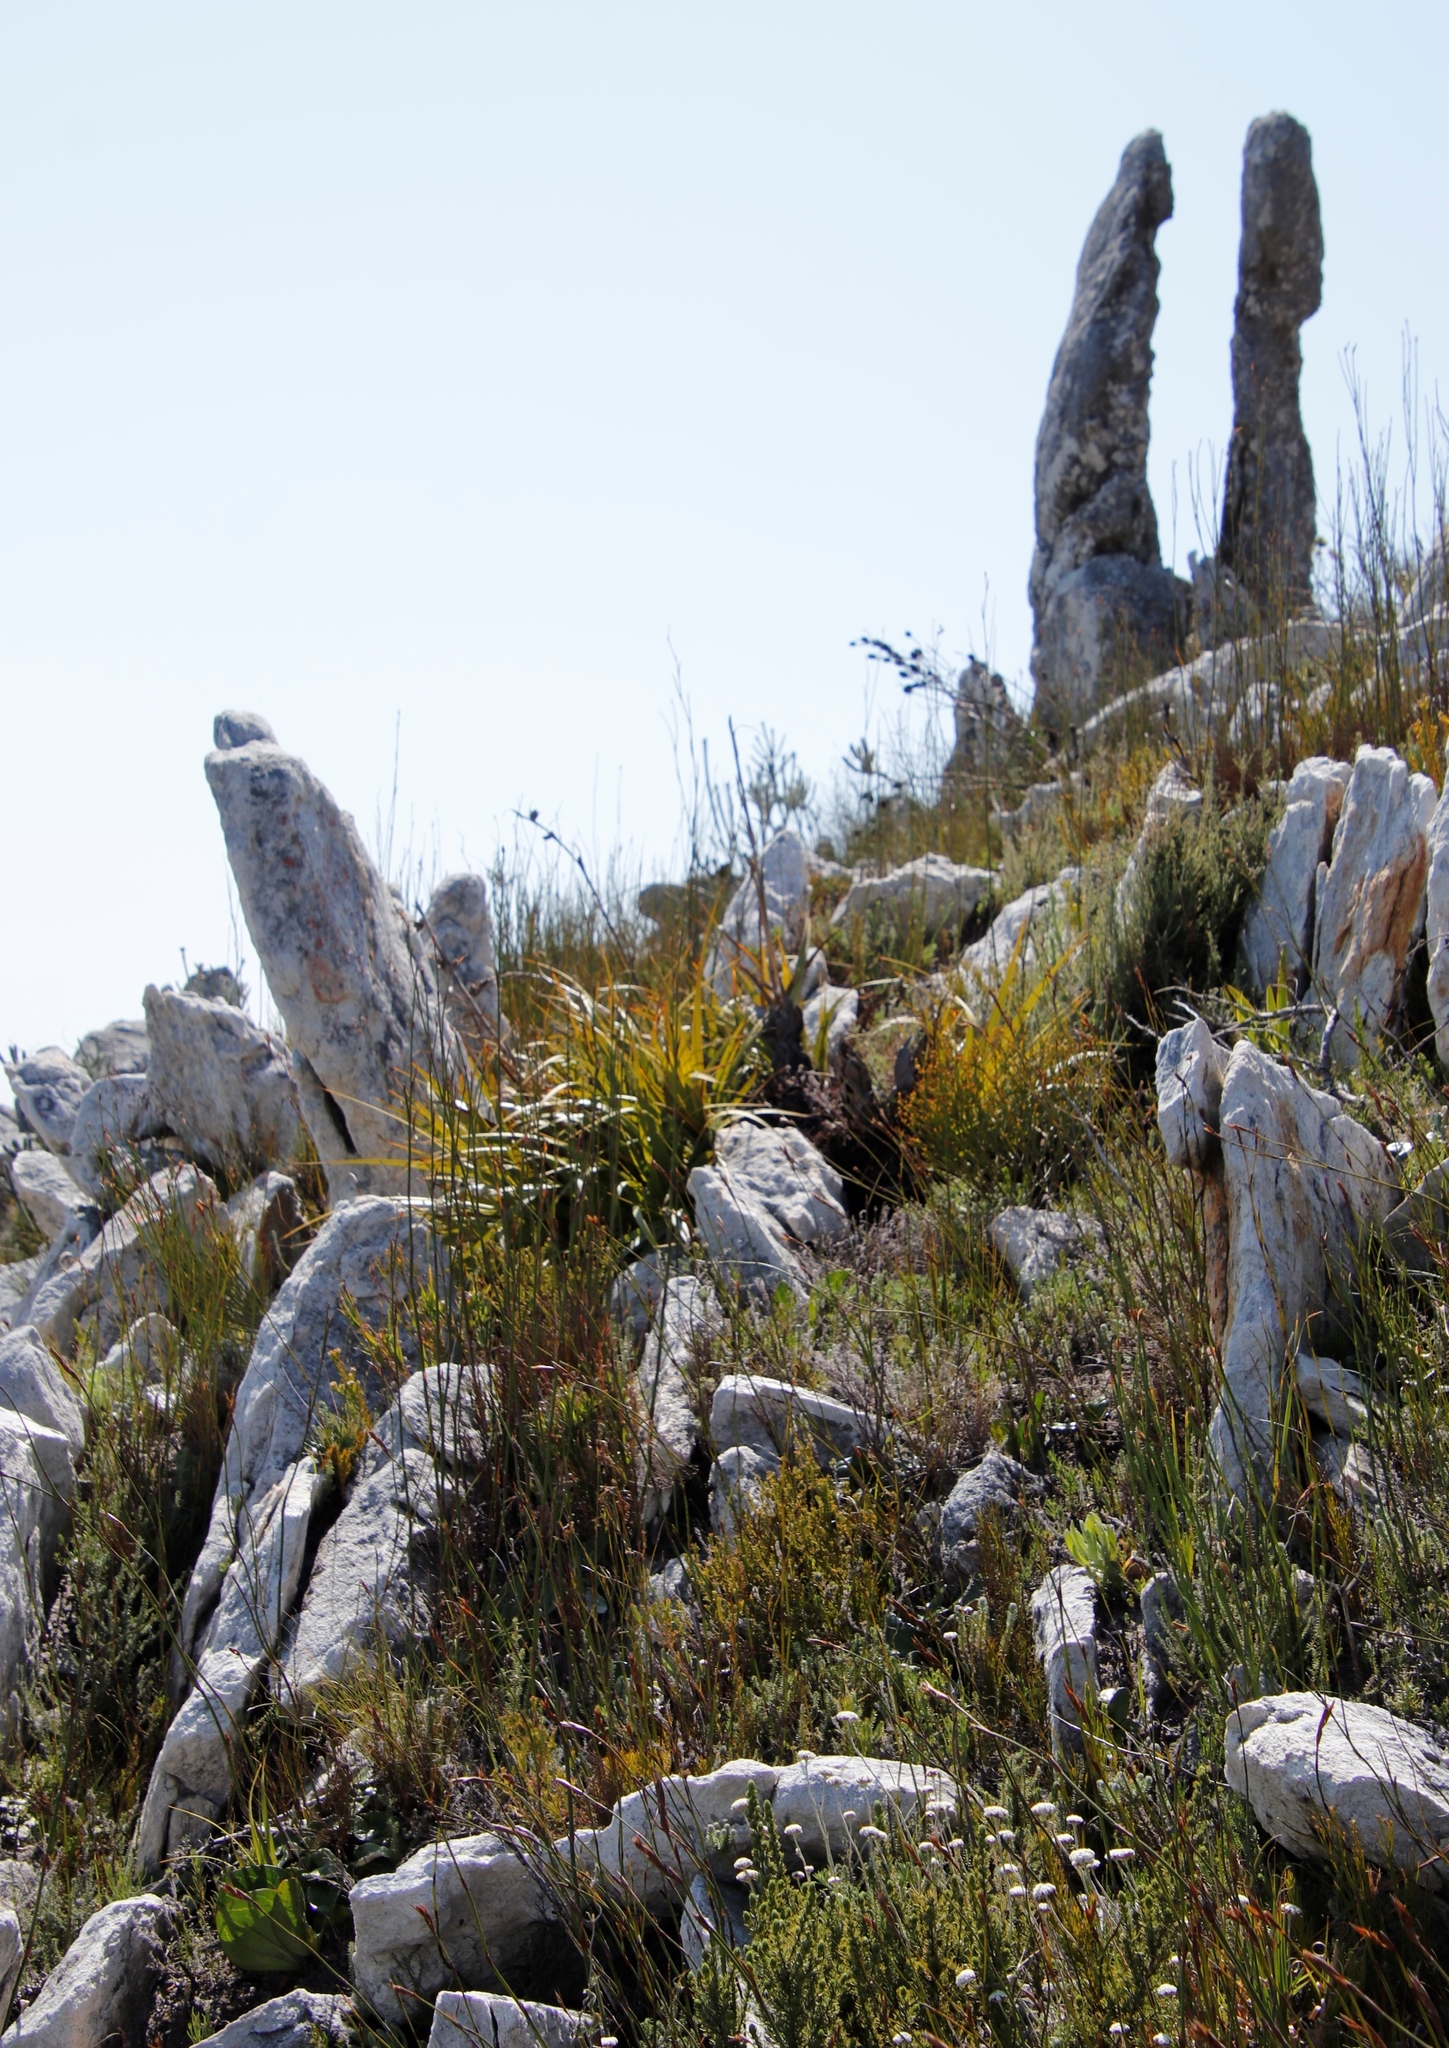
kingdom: Plantae
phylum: Tracheophyta
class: Liliopsida
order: Poales
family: Cyperaceae
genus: Tetraria
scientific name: Tetraria thermalis
